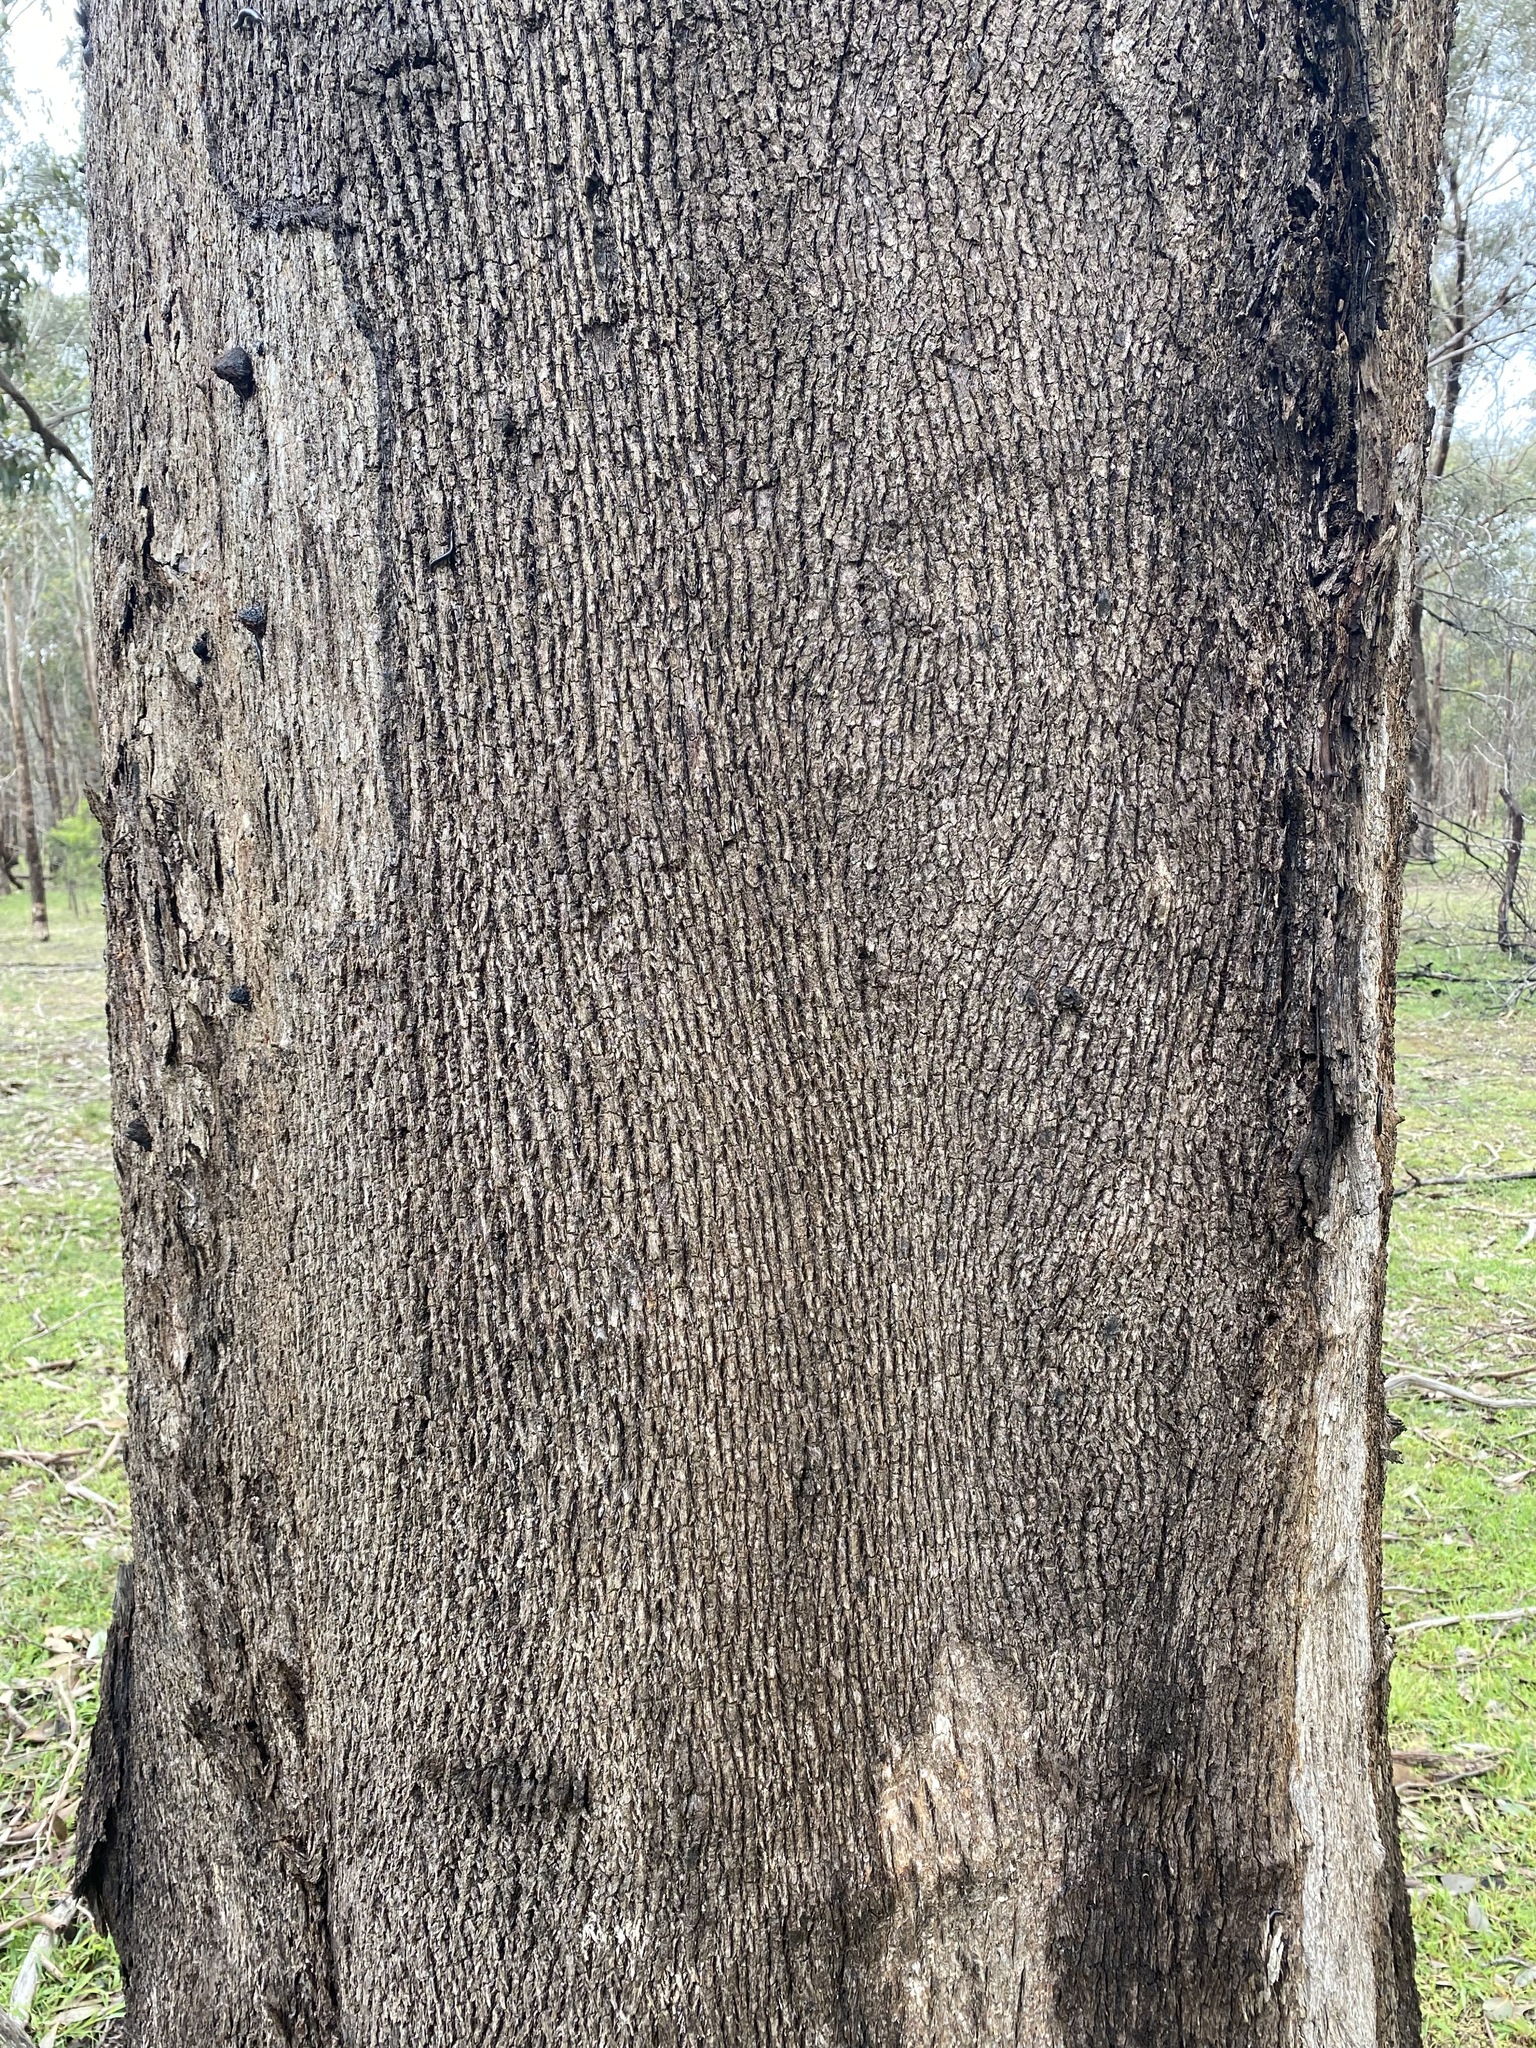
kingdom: Plantae
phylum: Tracheophyta
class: Magnoliopsida
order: Myrtales
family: Myrtaceae
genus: Eucalyptus
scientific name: Eucalyptus microcarpa
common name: Grey-box
